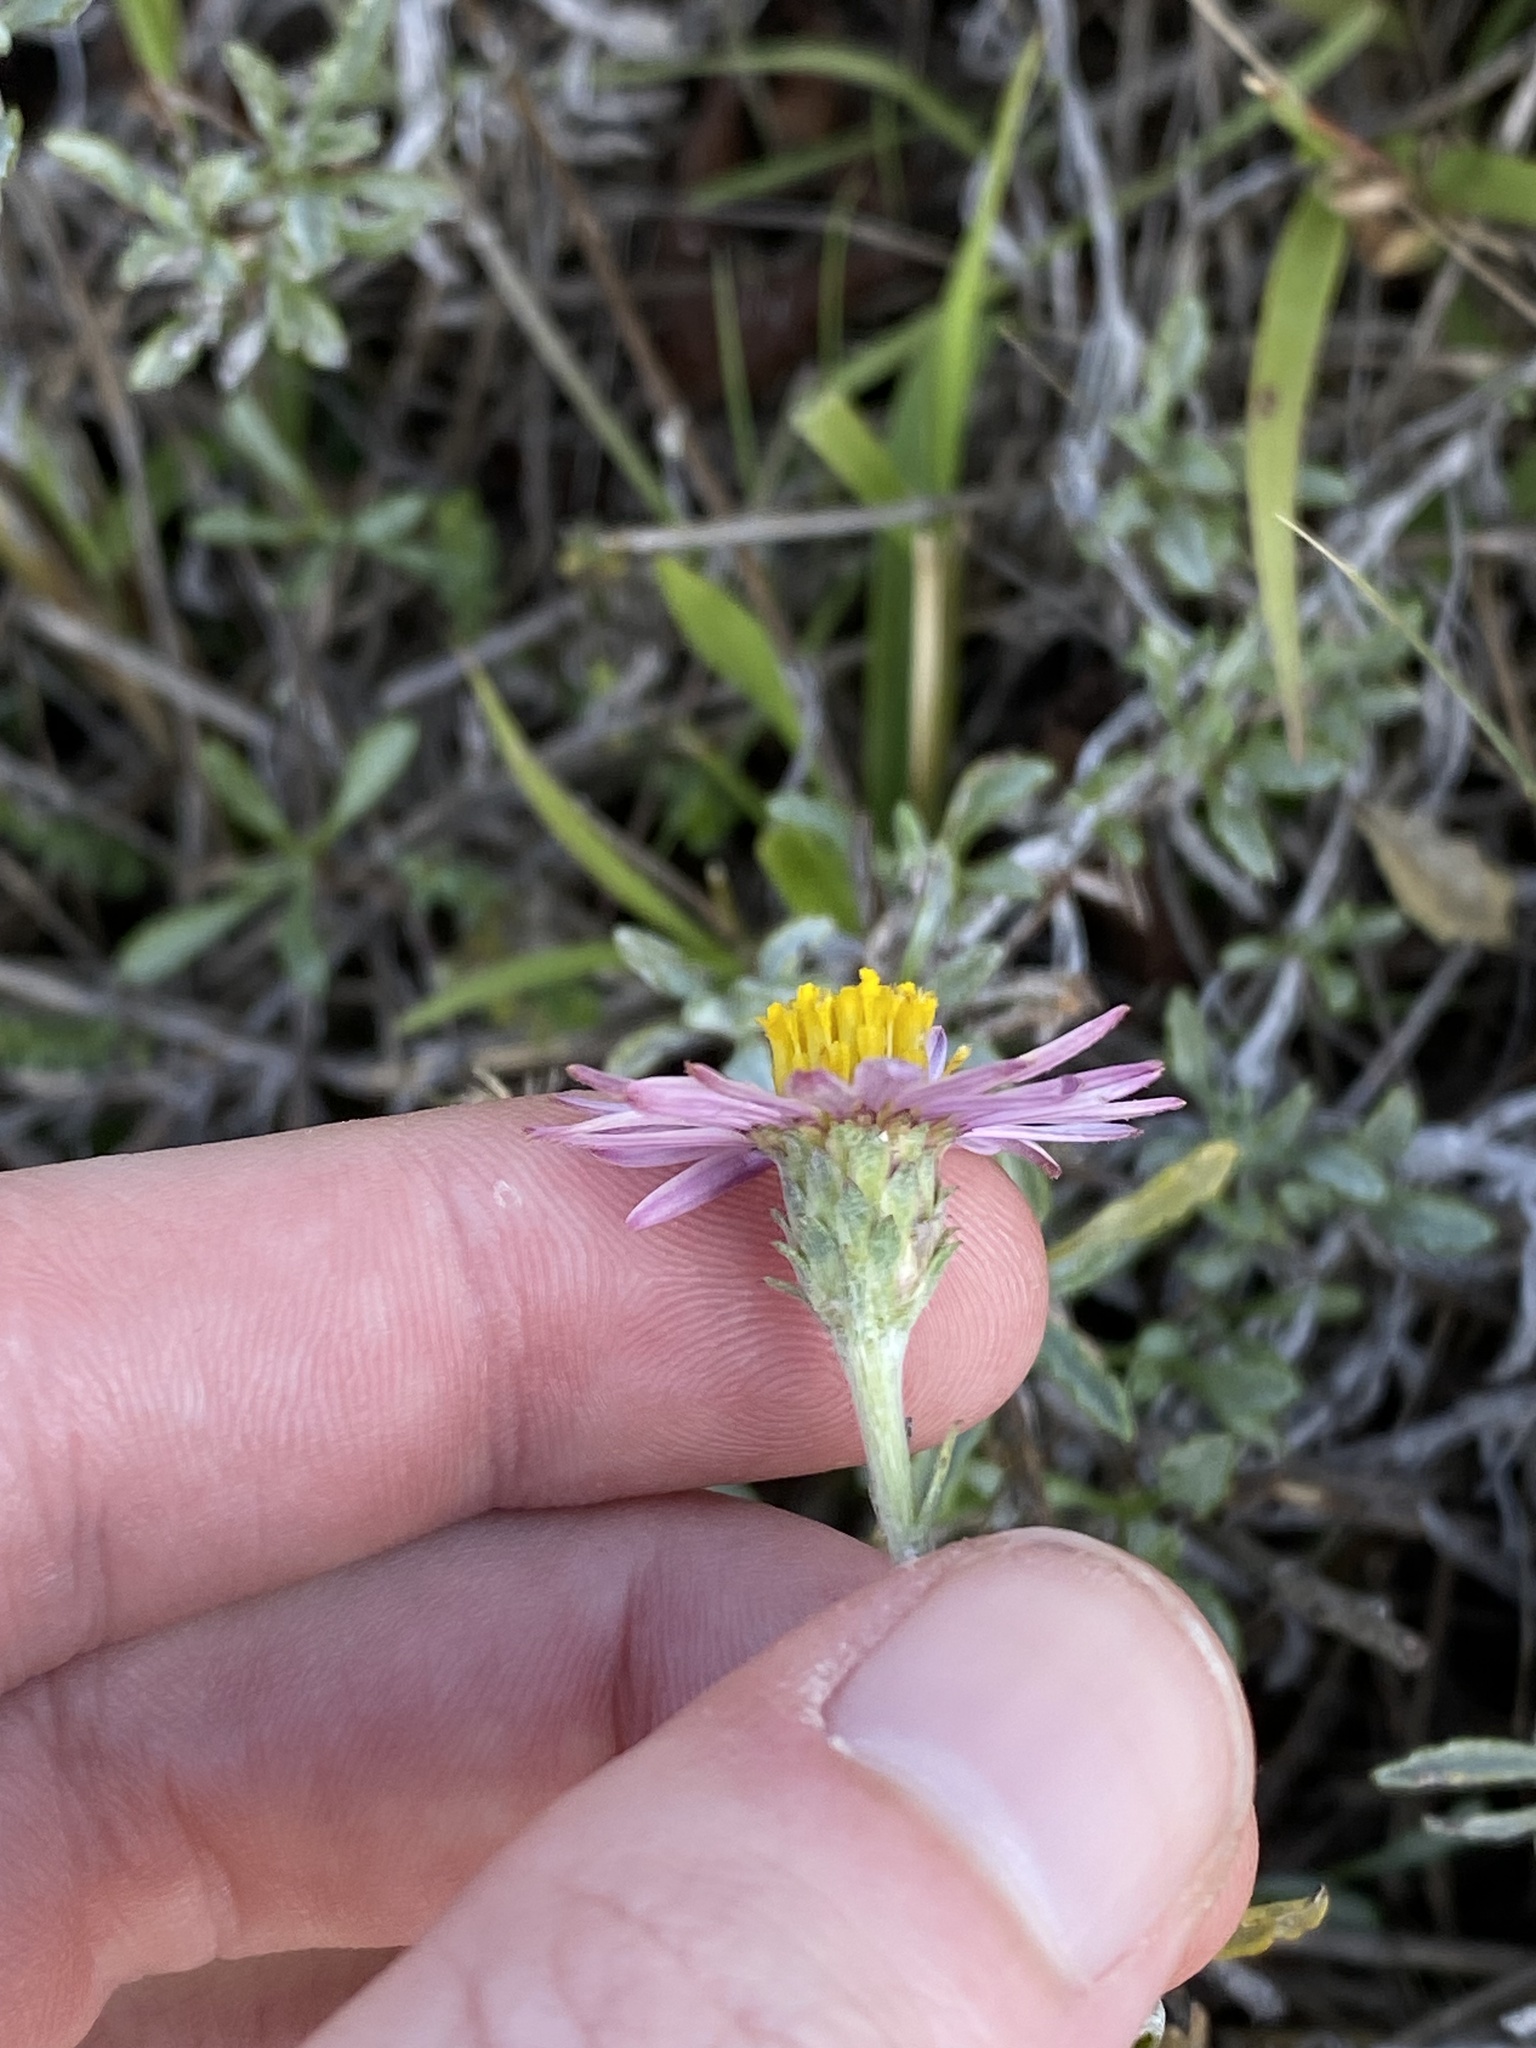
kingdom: Plantae
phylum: Tracheophyta
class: Magnoliopsida
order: Asterales
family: Asteraceae
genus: Corethrogyne
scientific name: Corethrogyne filaginifolia
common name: Sand-aster
